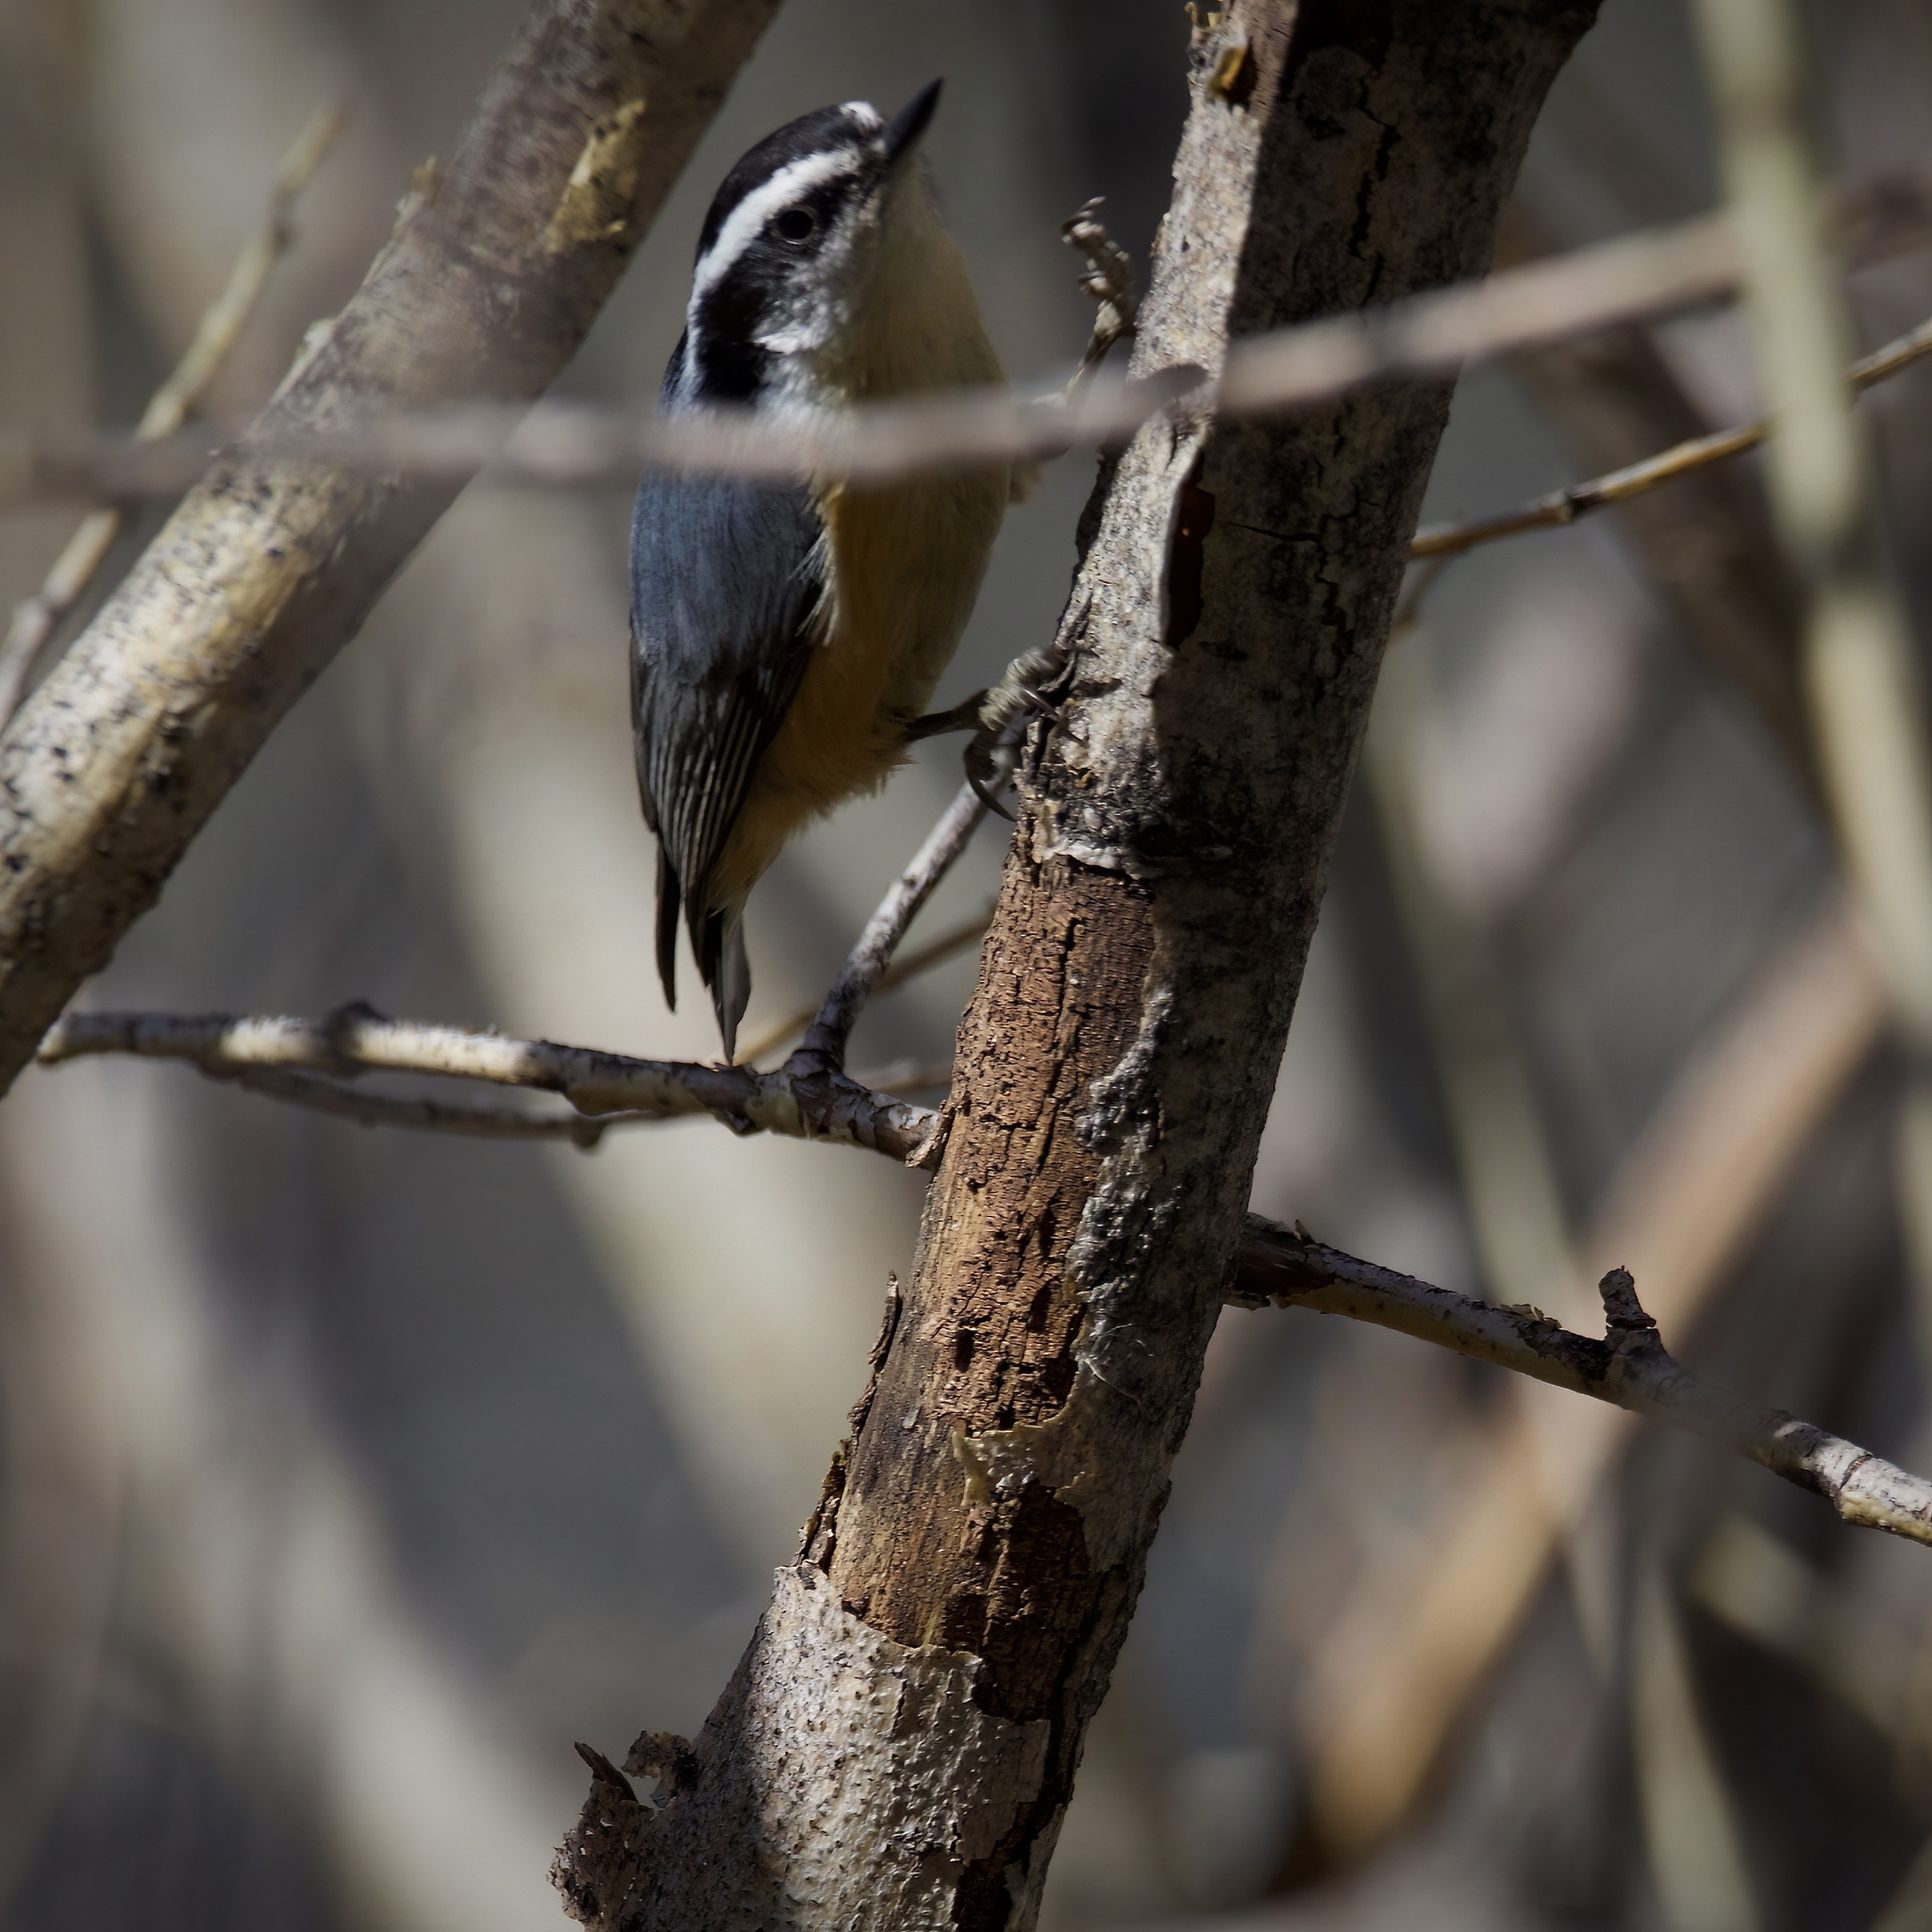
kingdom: Animalia
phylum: Chordata
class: Aves
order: Passeriformes
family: Sittidae
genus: Sitta
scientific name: Sitta canadensis
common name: Red-breasted nuthatch
